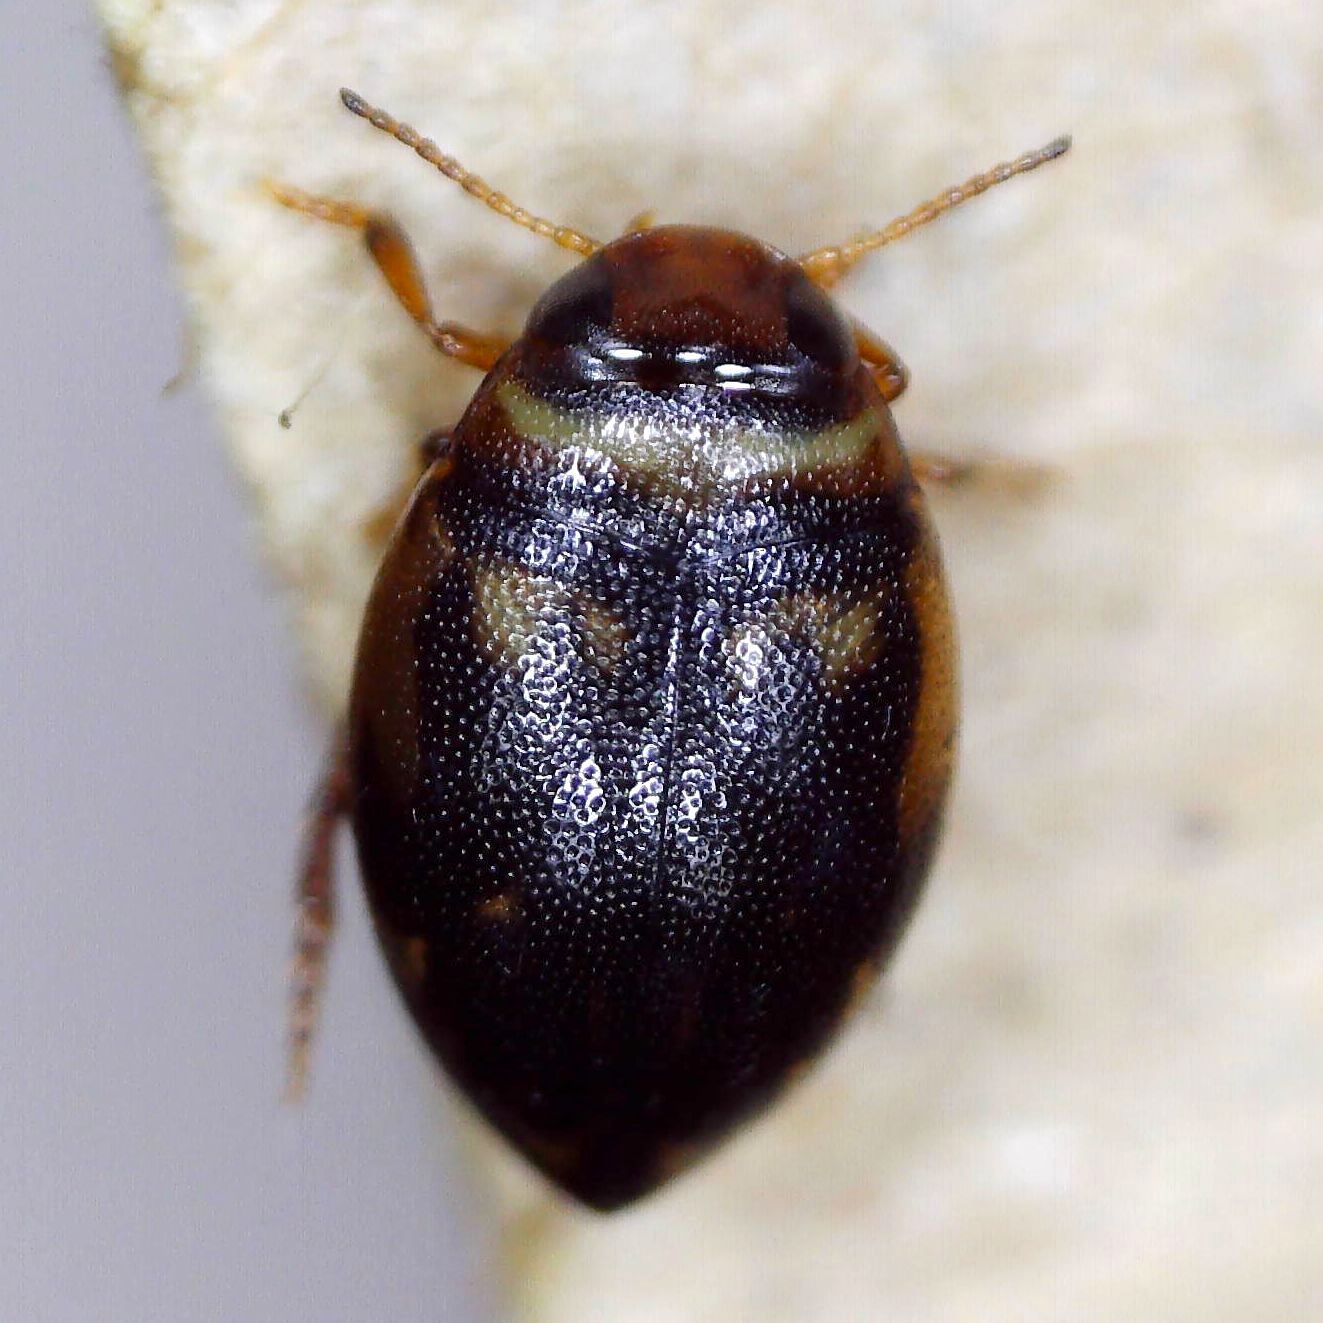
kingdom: Animalia
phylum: Arthropoda
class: Insecta
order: Coleoptera
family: Dytiscidae
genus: Hygrotus
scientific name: Hygrotus inaequalis
